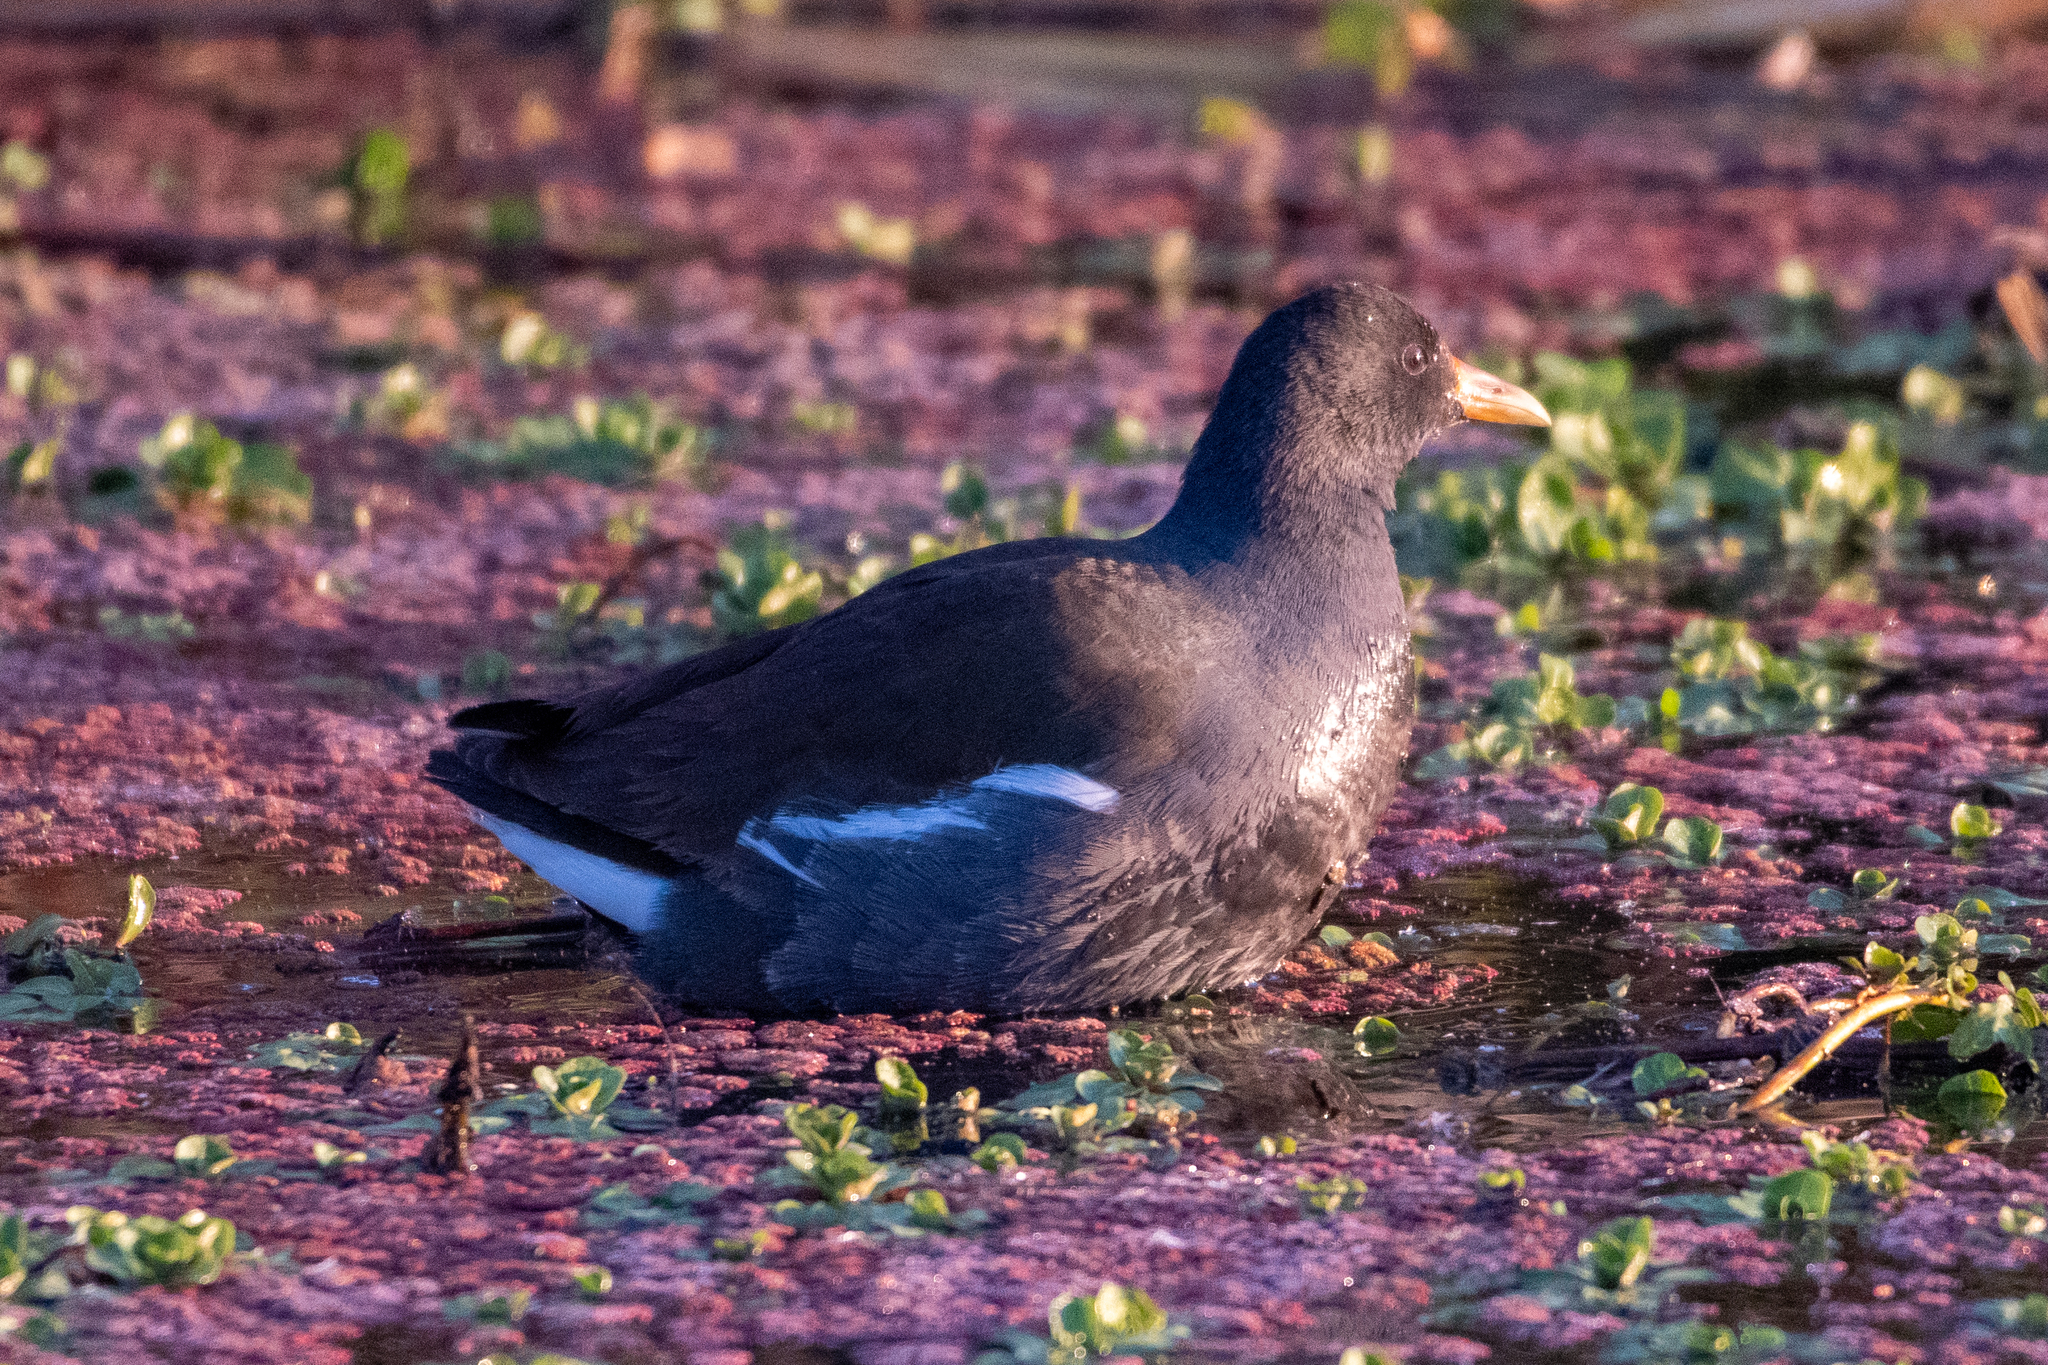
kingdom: Animalia
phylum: Chordata
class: Aves
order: Gruiformes
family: Rallidae
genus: Gallinula
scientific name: Gallinula chloropus
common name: Common moorhen
